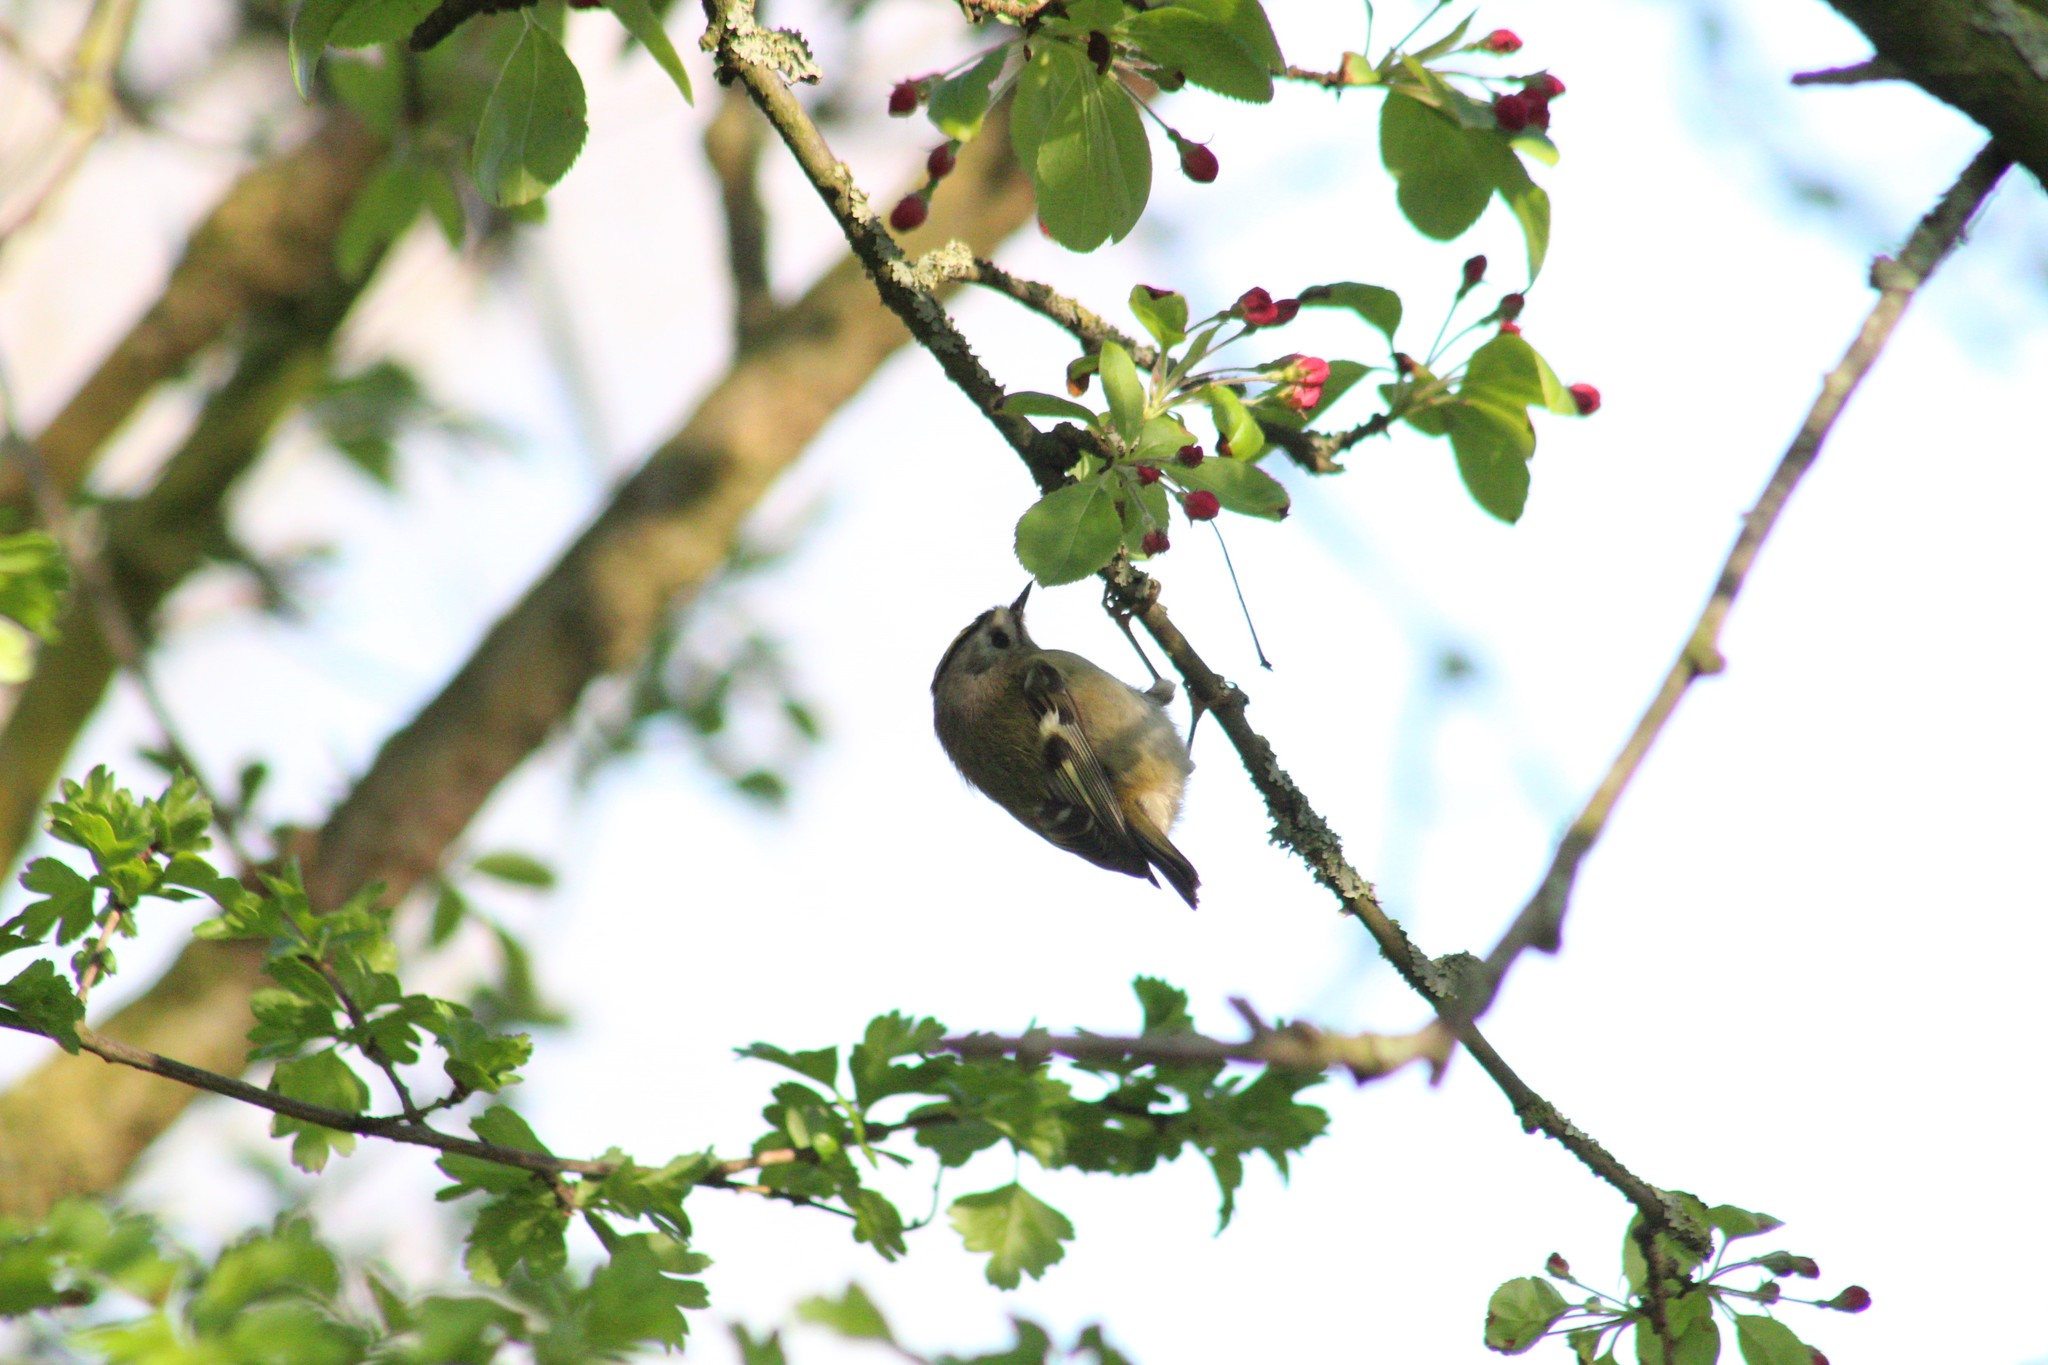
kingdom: Animalia
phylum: Chordata
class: Aves
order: Passeriformes
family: Regulidae
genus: Regulus
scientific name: Regulus regulus
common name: Goldcrest
